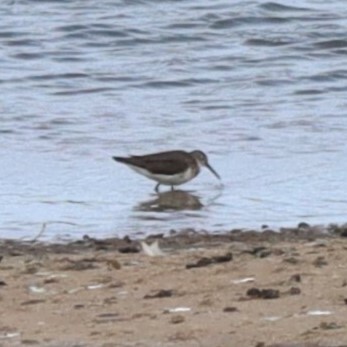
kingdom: Animalia
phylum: Chordata
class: Aves
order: Charadriiformes
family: Scolopacidae
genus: Actitis
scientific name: Actitis hypoleucos
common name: Common sandpiper
